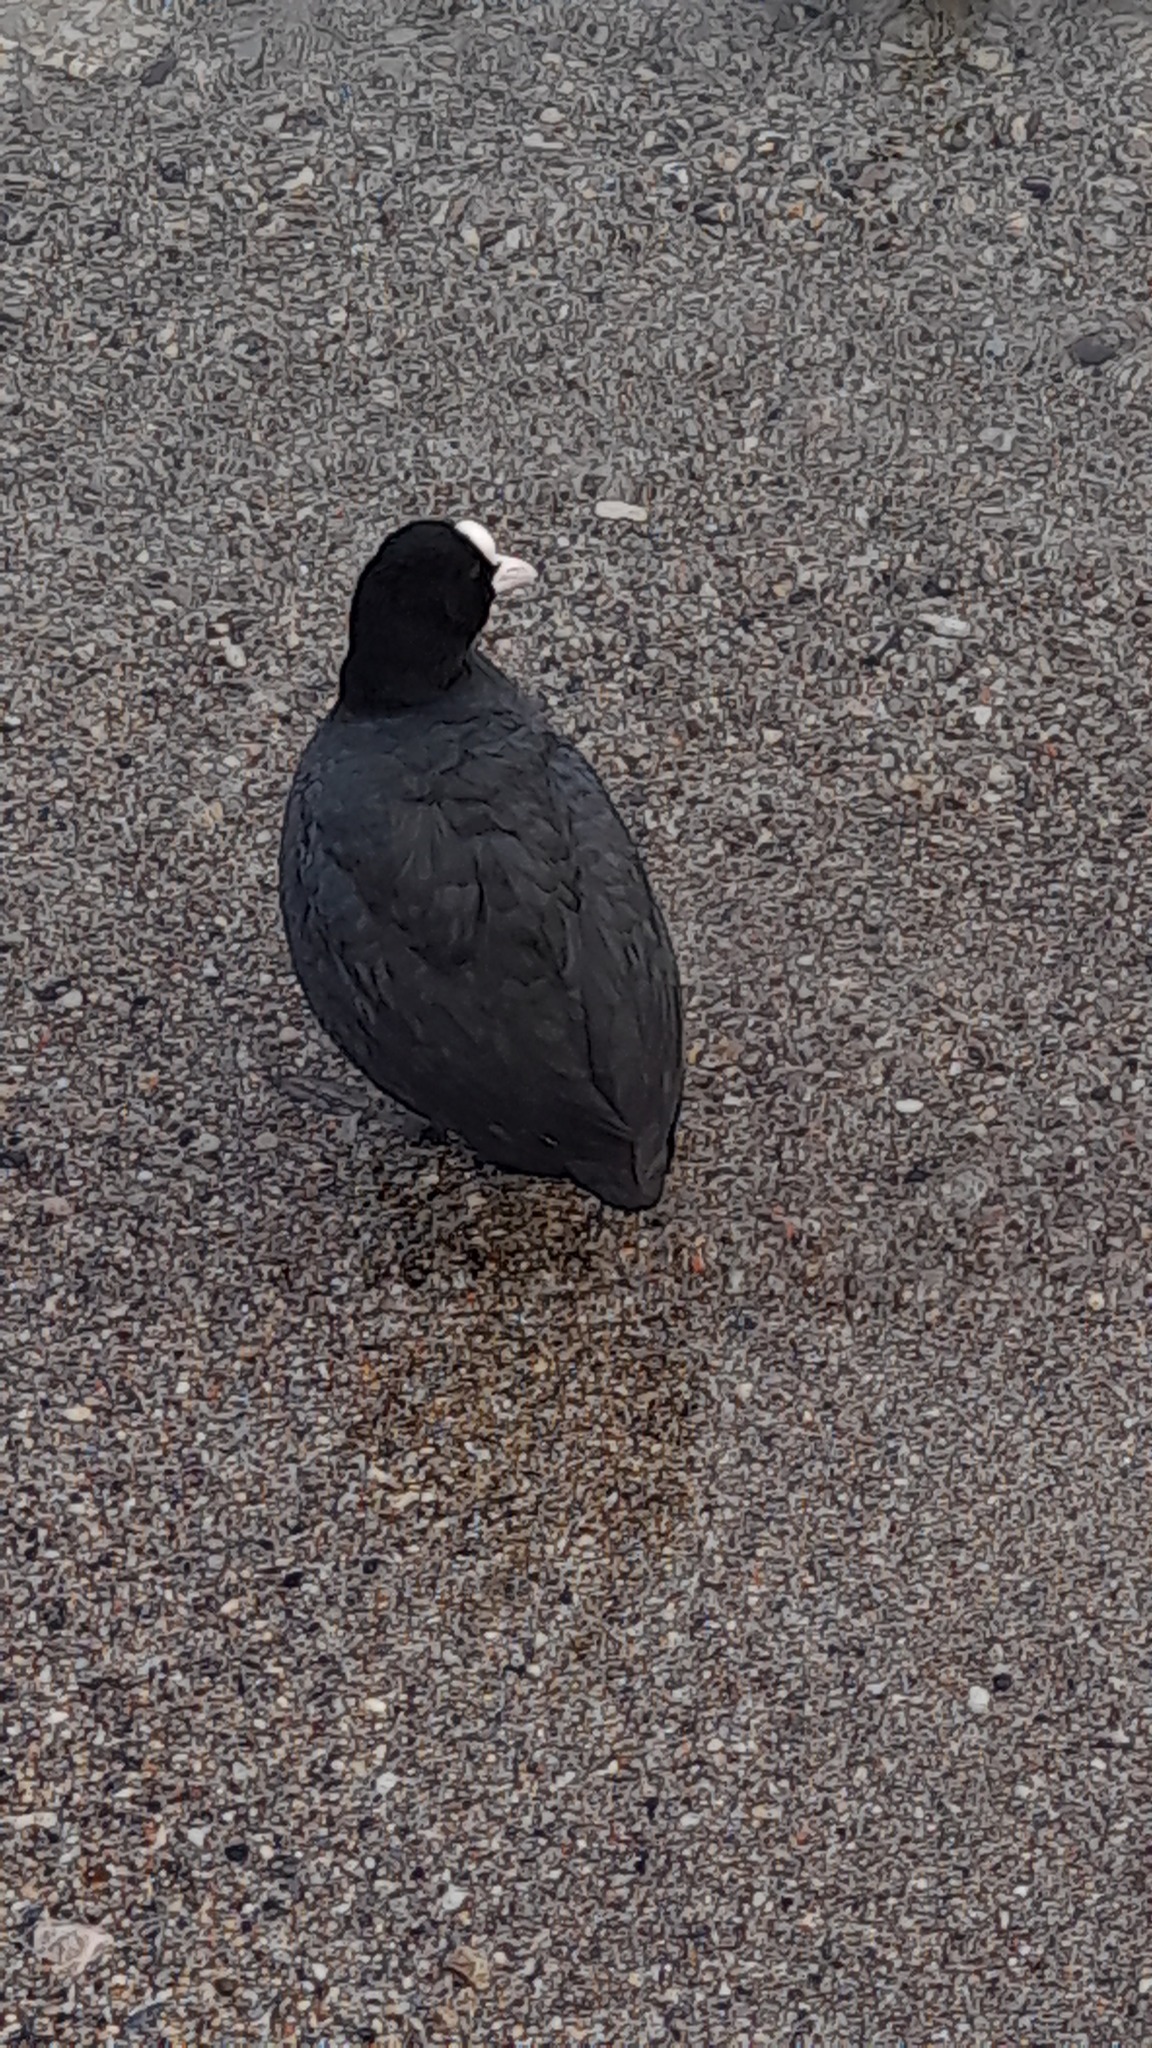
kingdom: Animalia
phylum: Chordata
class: Aves
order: Gruiformes
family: Rallidae
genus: Fulica
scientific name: Fulica atra
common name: Eurasian coot
